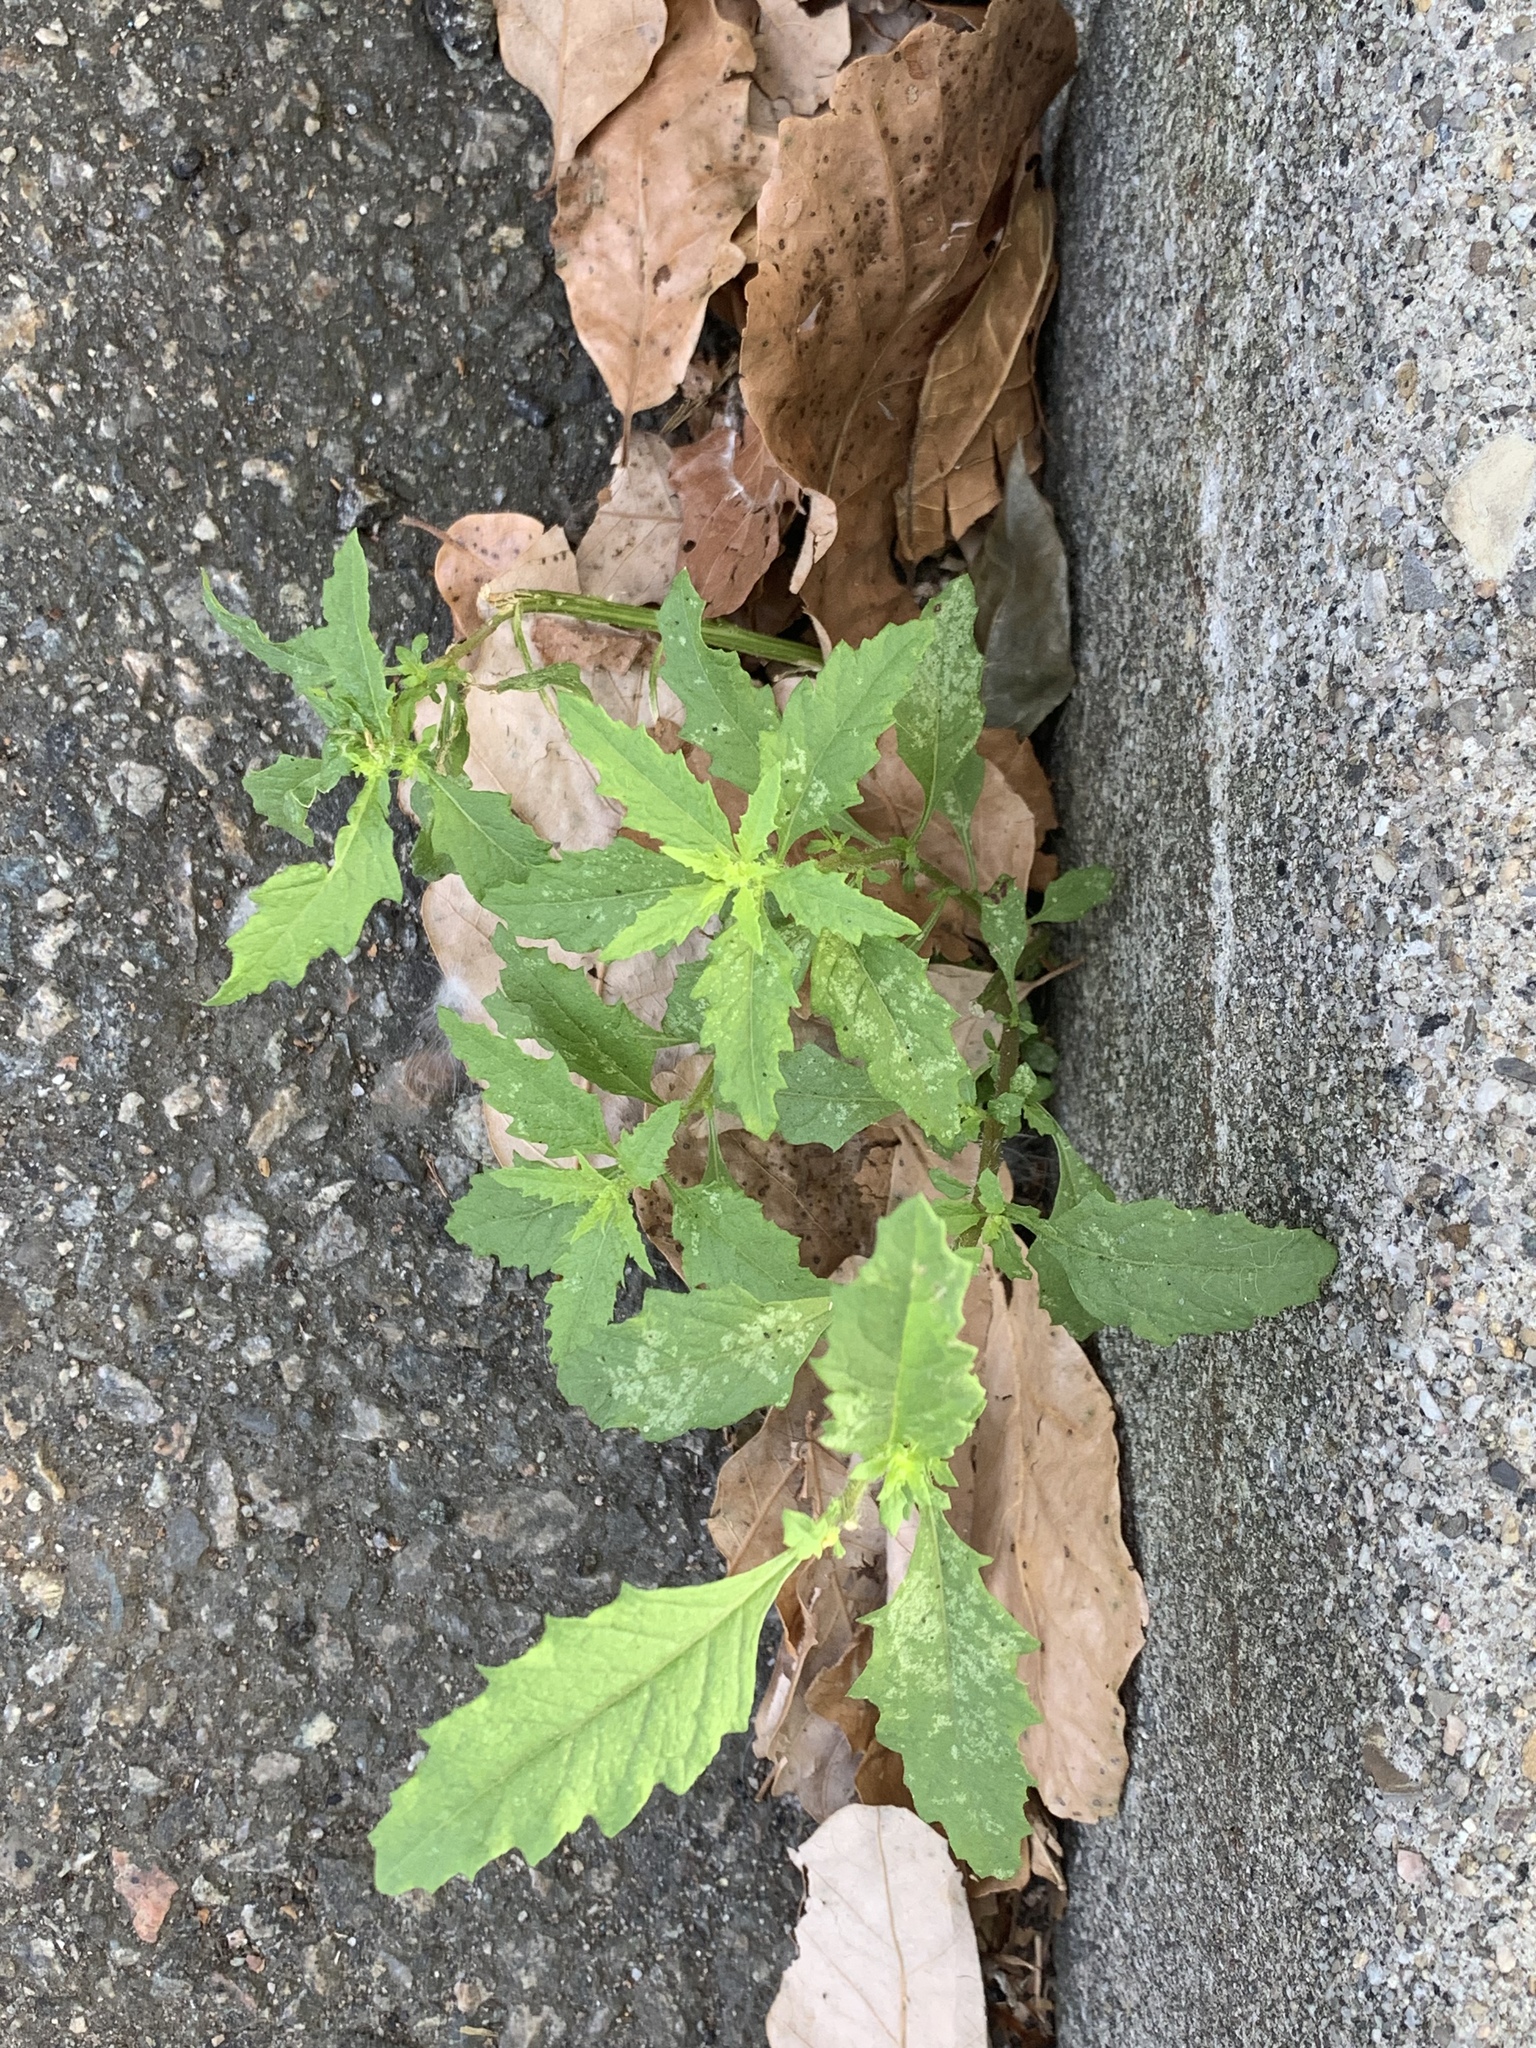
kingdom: Plantae
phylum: Tracheophyta
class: Magnoliopsida
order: Caryophyllales
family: Amaranthaceae
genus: Dysphania
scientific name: Dysphania ambrosioides
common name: Wormseed
